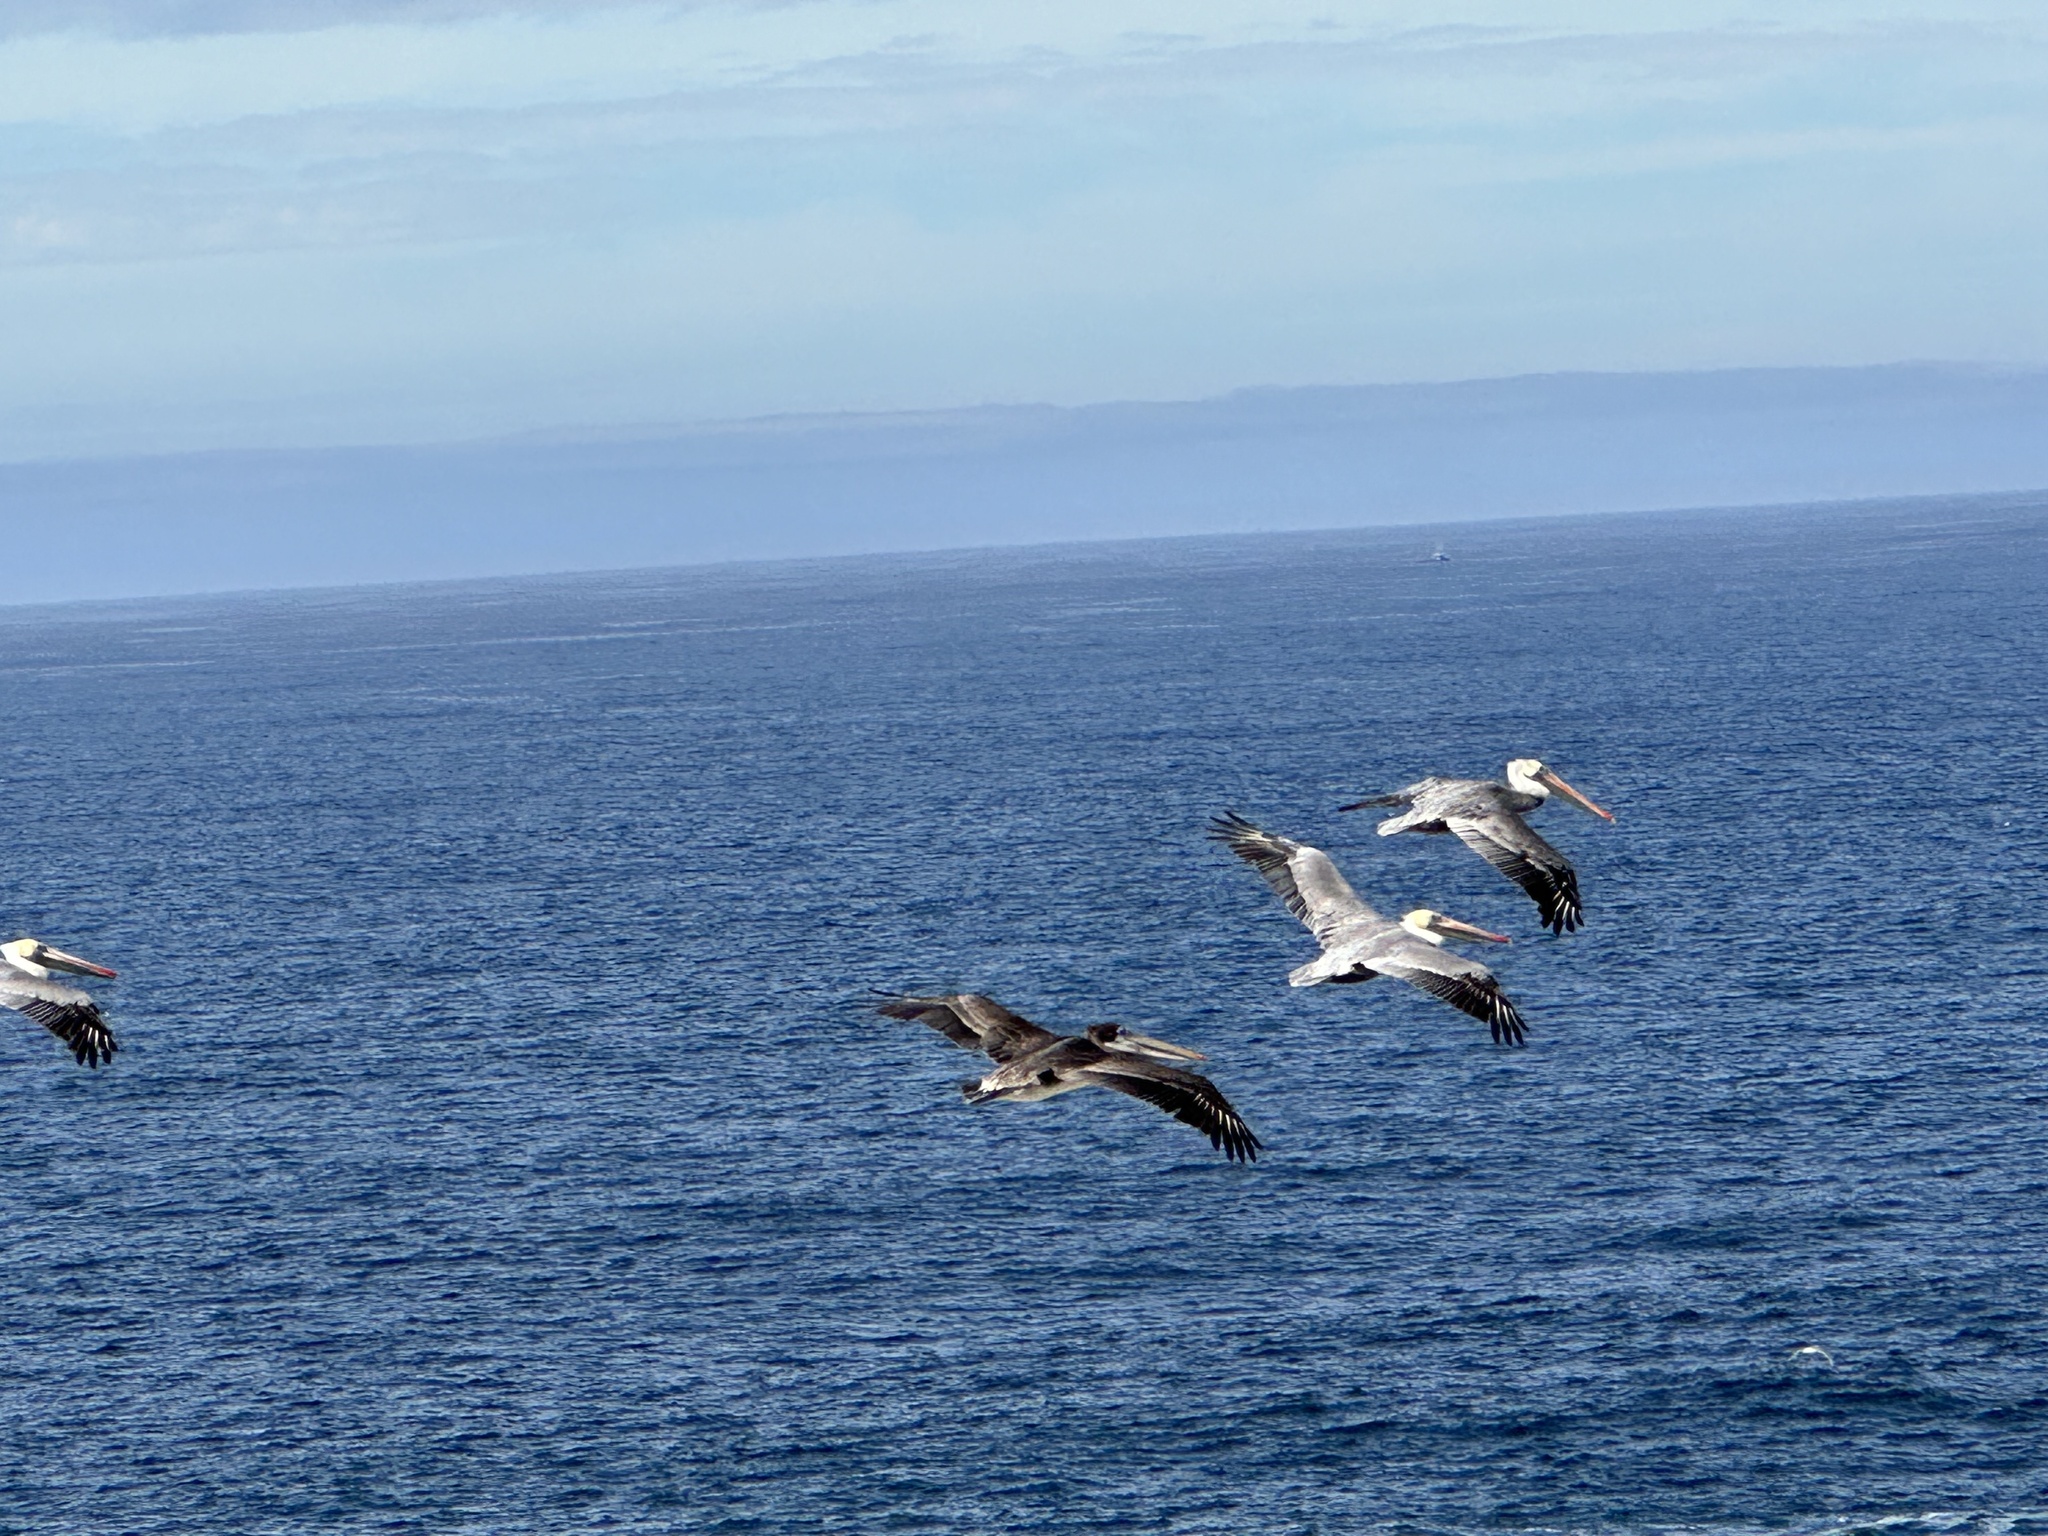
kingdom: Animalia
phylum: Chordata
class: Aves
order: Pelecaniformes
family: Pelecanidae
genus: Pelecanus
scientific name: Pelecanus occidentalis
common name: Brown pelican
